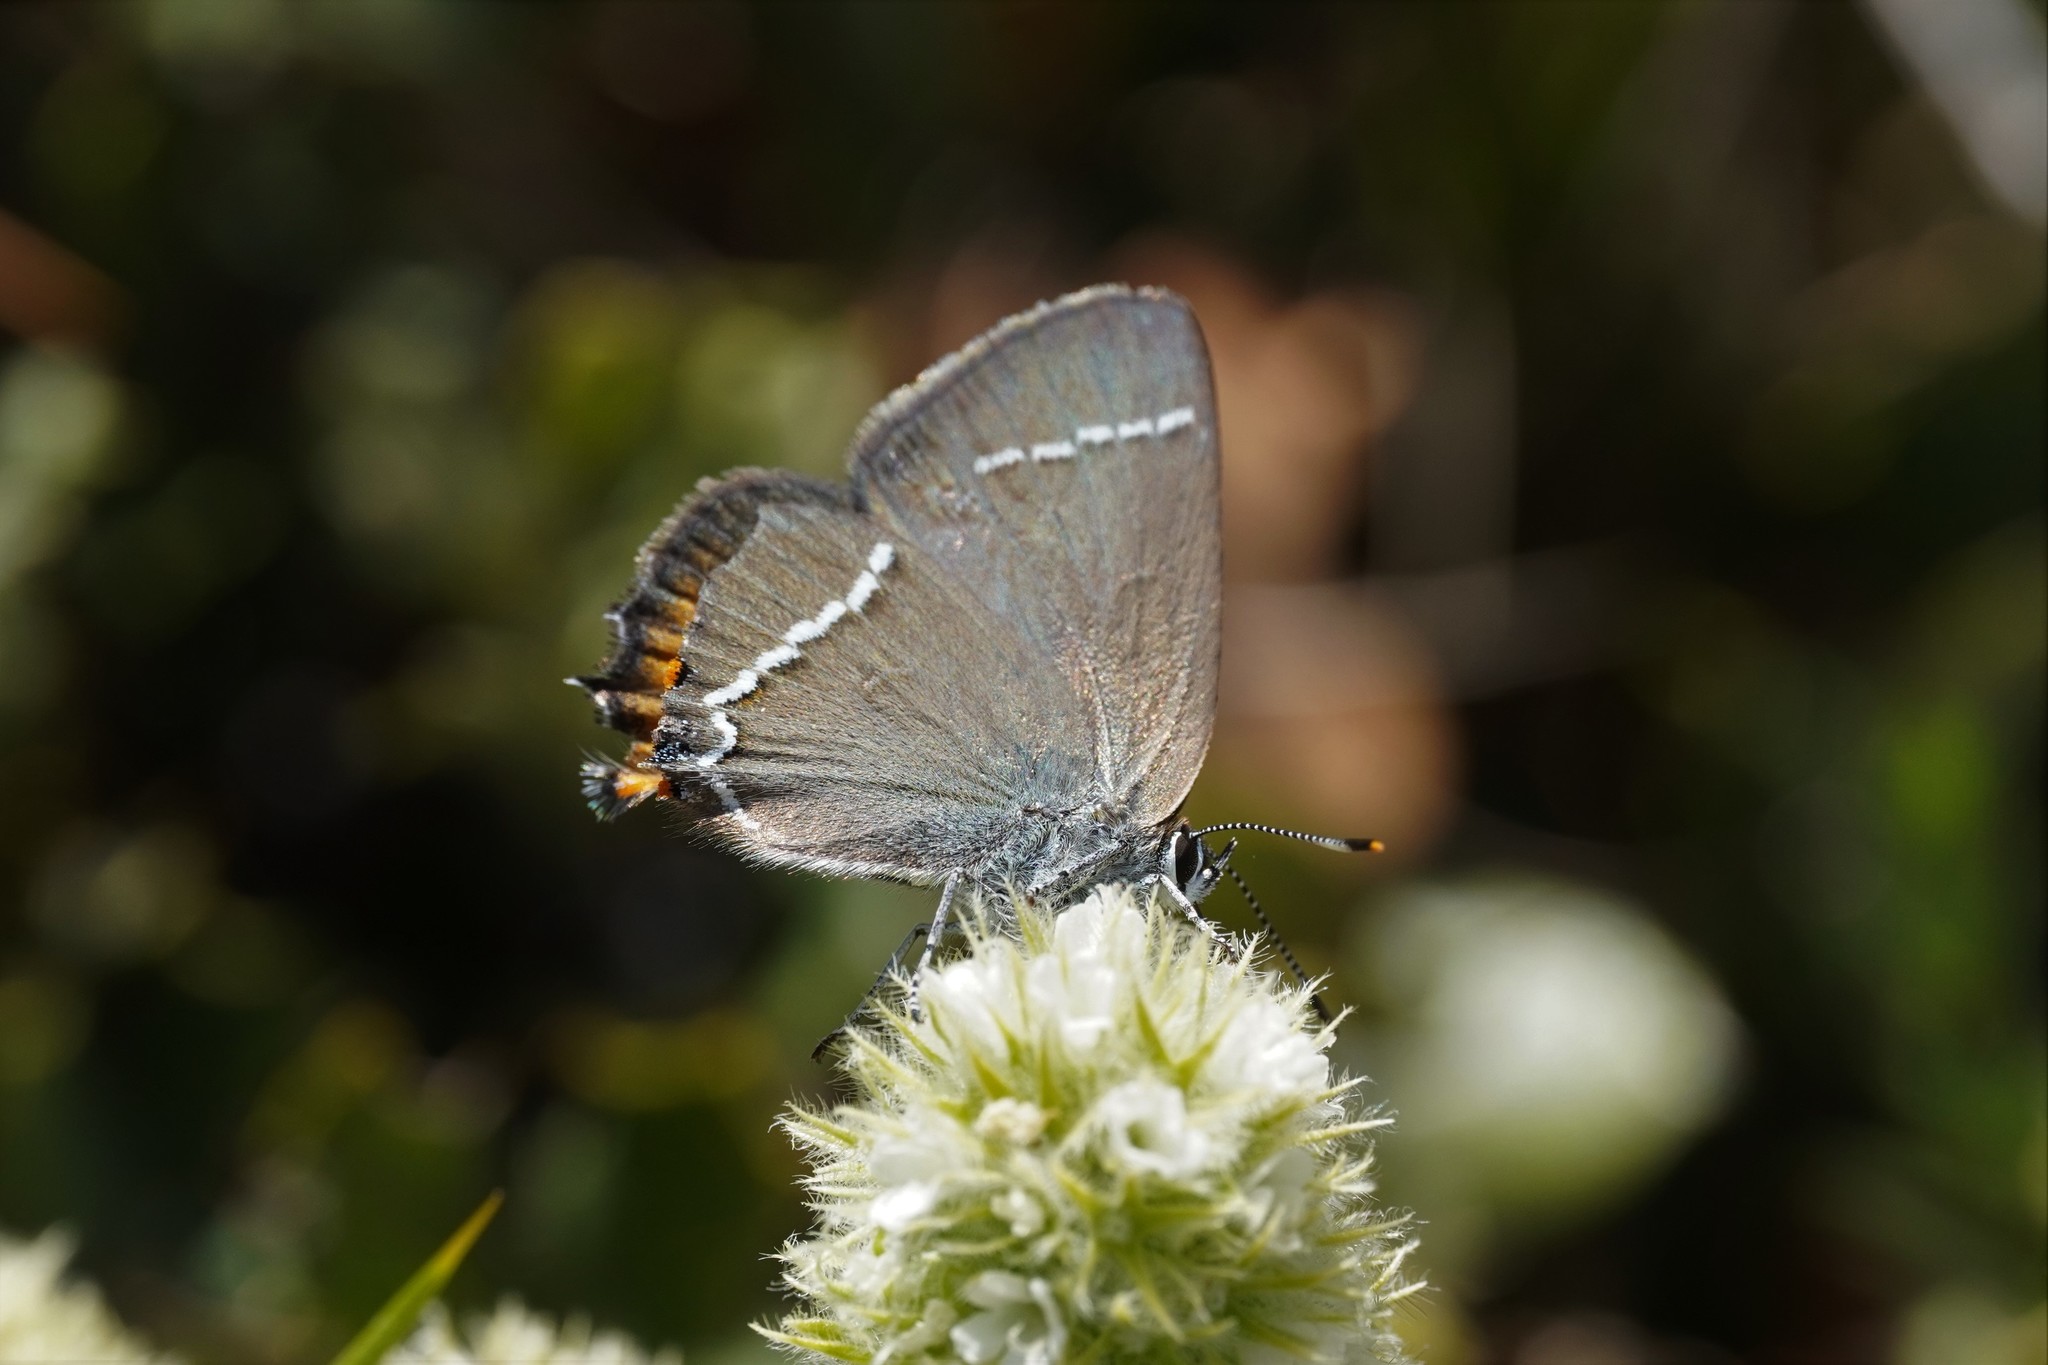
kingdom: Animalia
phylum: Arthropoda
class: Insecta
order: Lepidoptera
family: Lycaenidae
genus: Tuttiola
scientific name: Tuttiola spini
